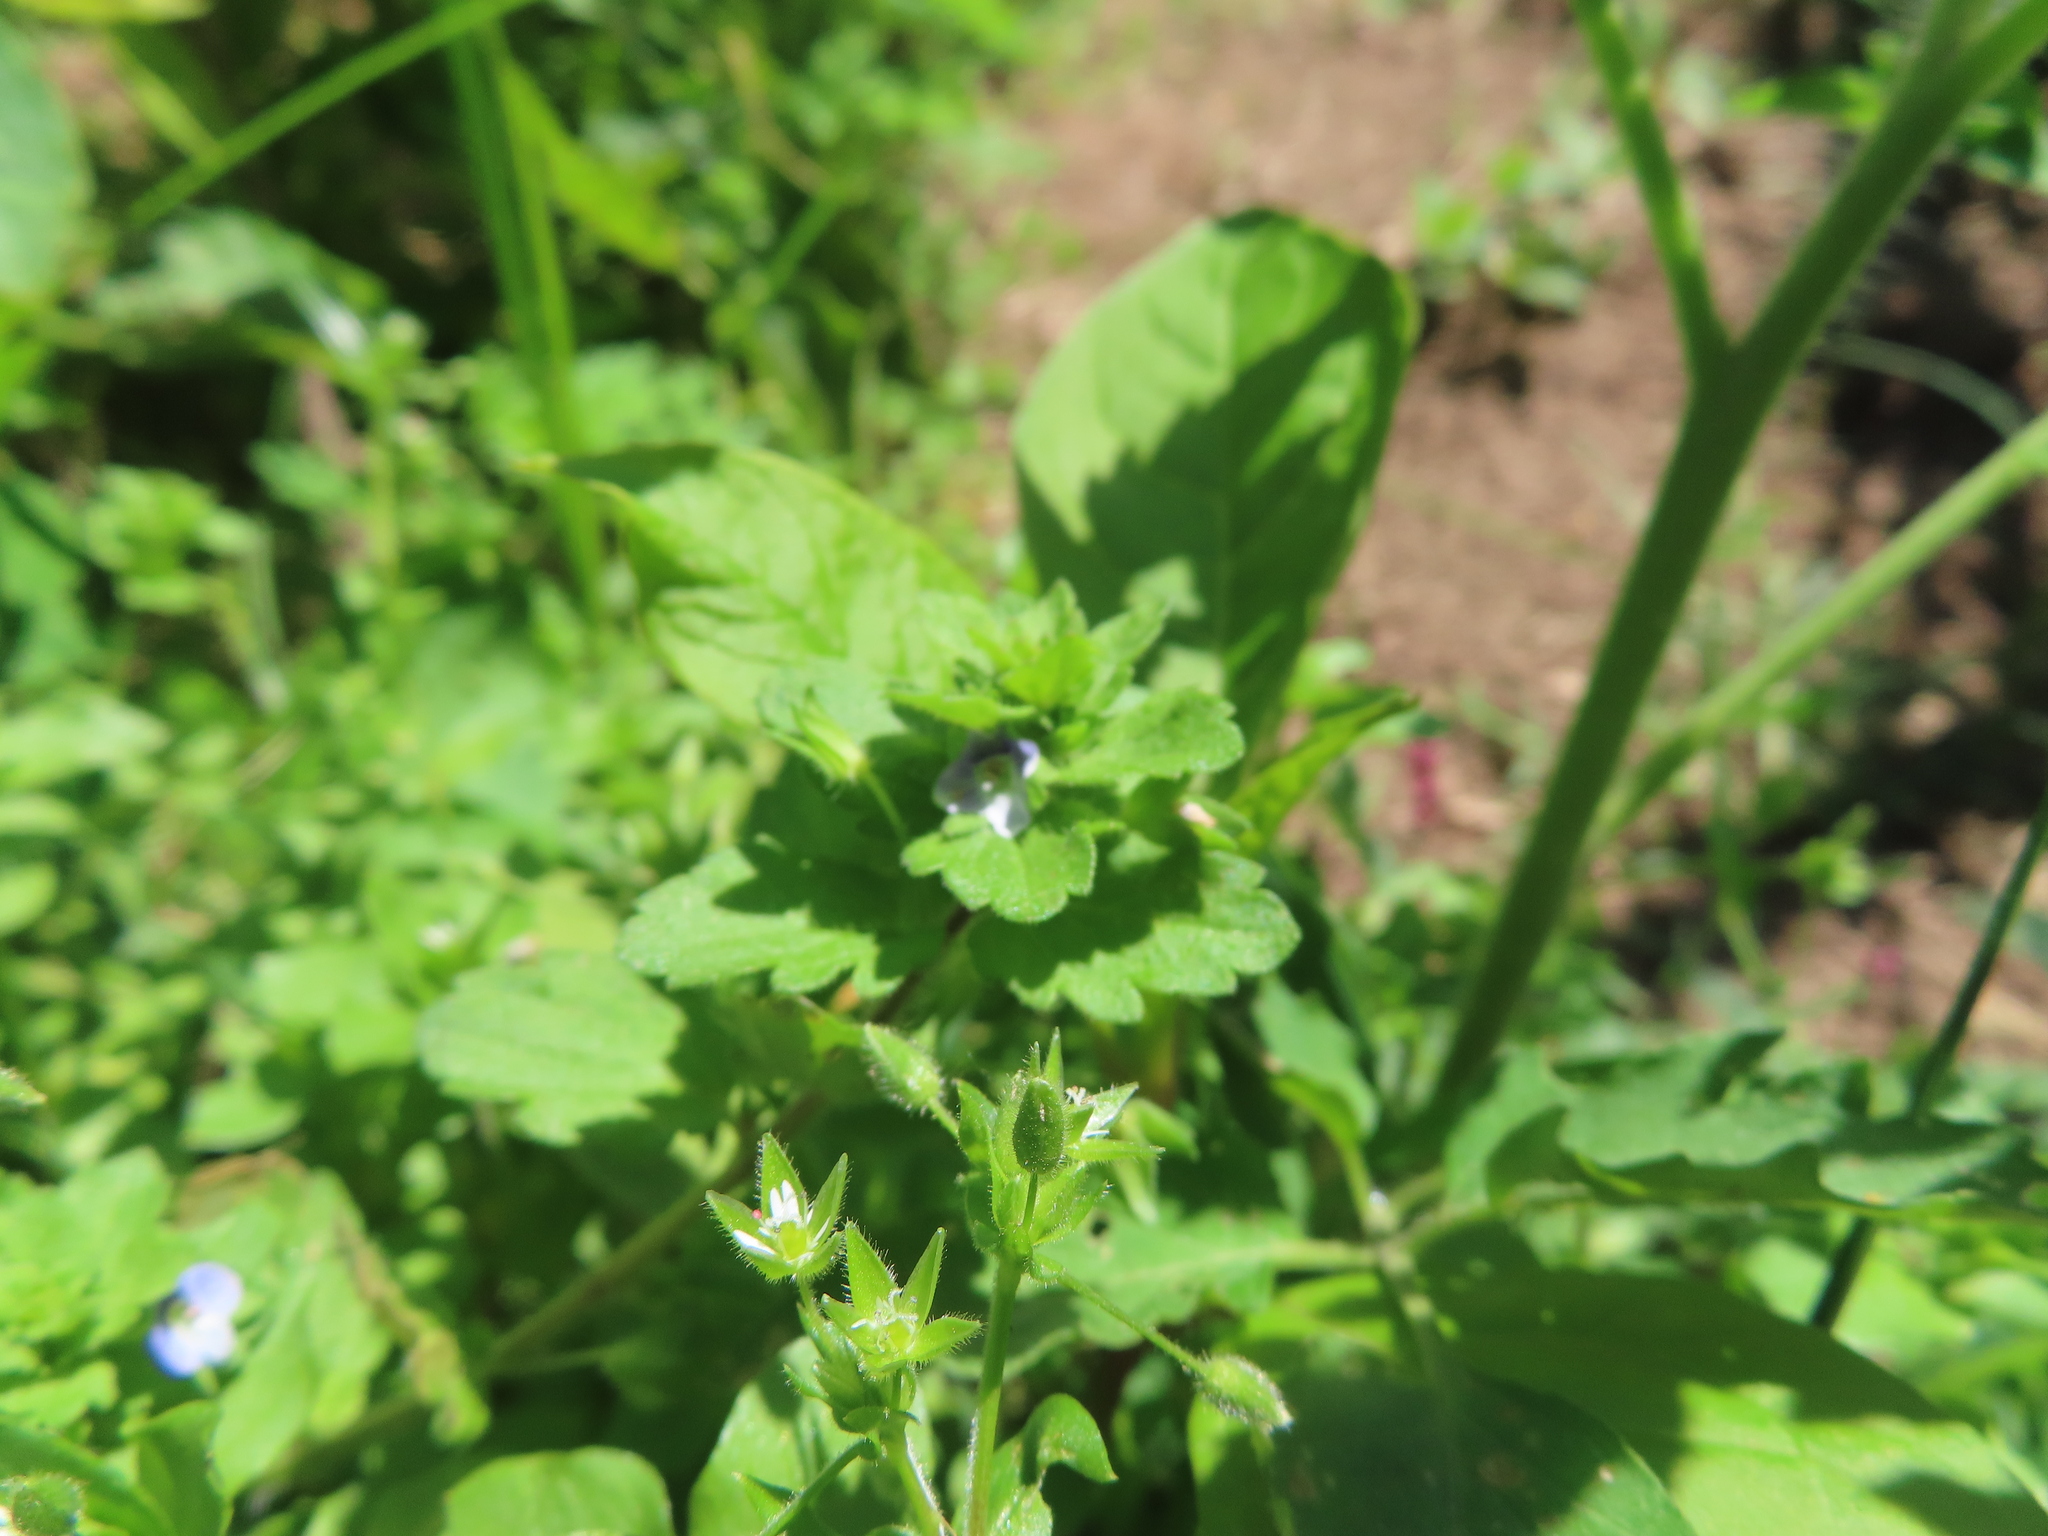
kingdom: Plantae
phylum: Tracheophyta
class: Magnoliopsida
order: Lamiales
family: Plantaginaceae
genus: Veronica
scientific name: Veronica persica
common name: Common field-speedwell
